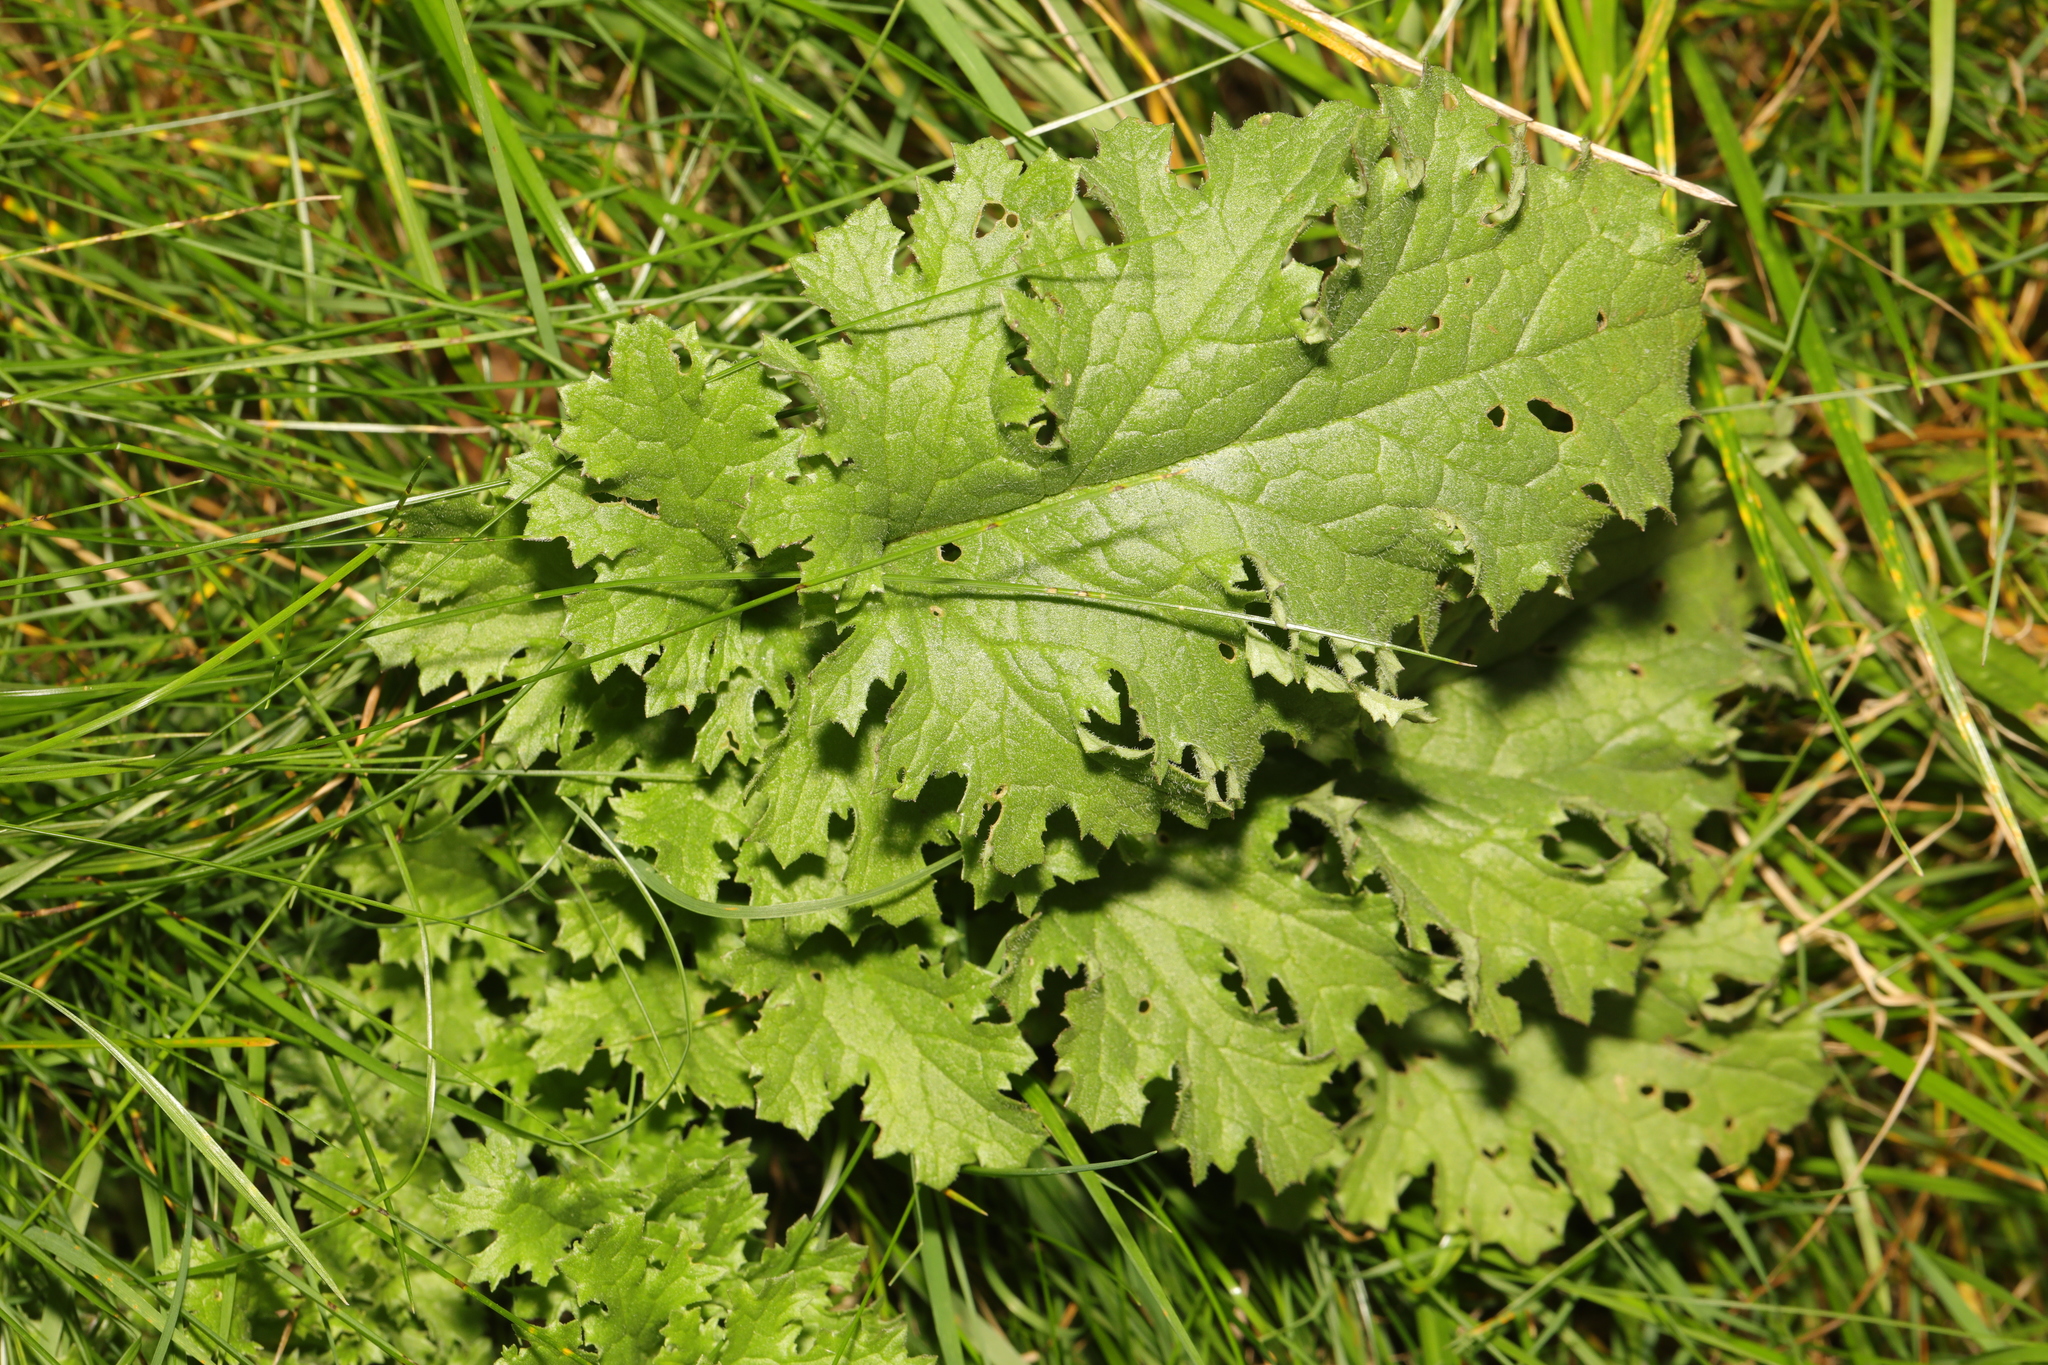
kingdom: Plantae
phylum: Tracheophyta
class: Magnoliopsida
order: Asterales
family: Asteraceae
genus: Jacobaea
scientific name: Jacobaea vulgaris
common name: Stinking willie
